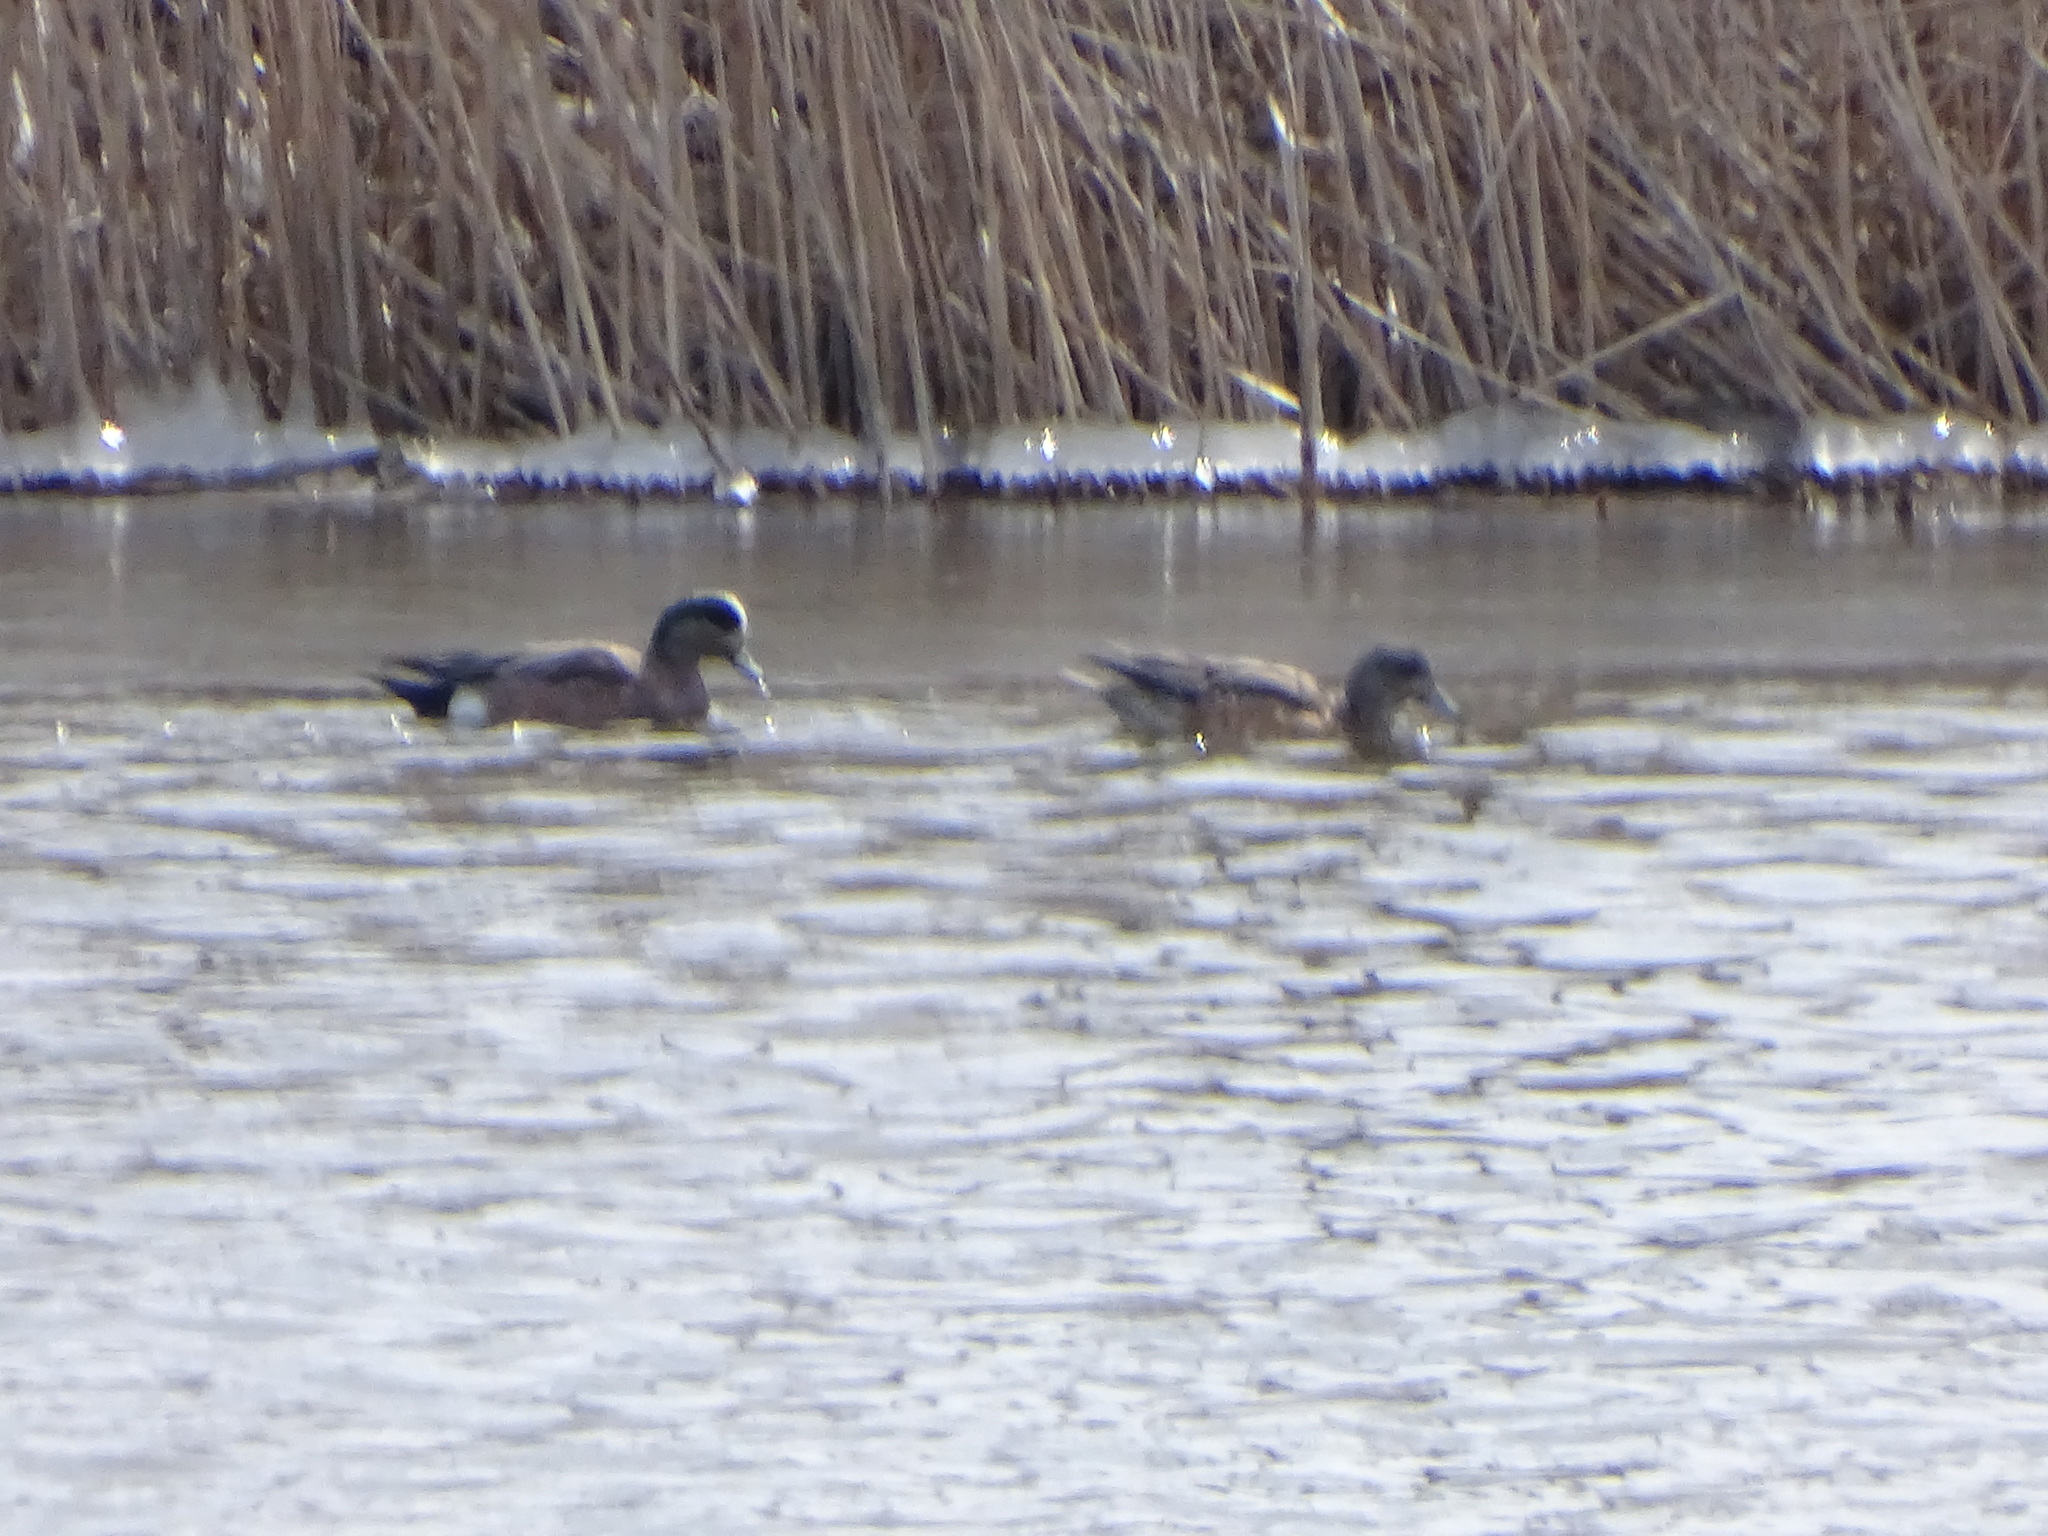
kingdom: Animalia
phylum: Chordata
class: Aves
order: Anseriformes
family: Anatidae
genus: Mareca
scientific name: Mareca americana
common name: American wigeon
